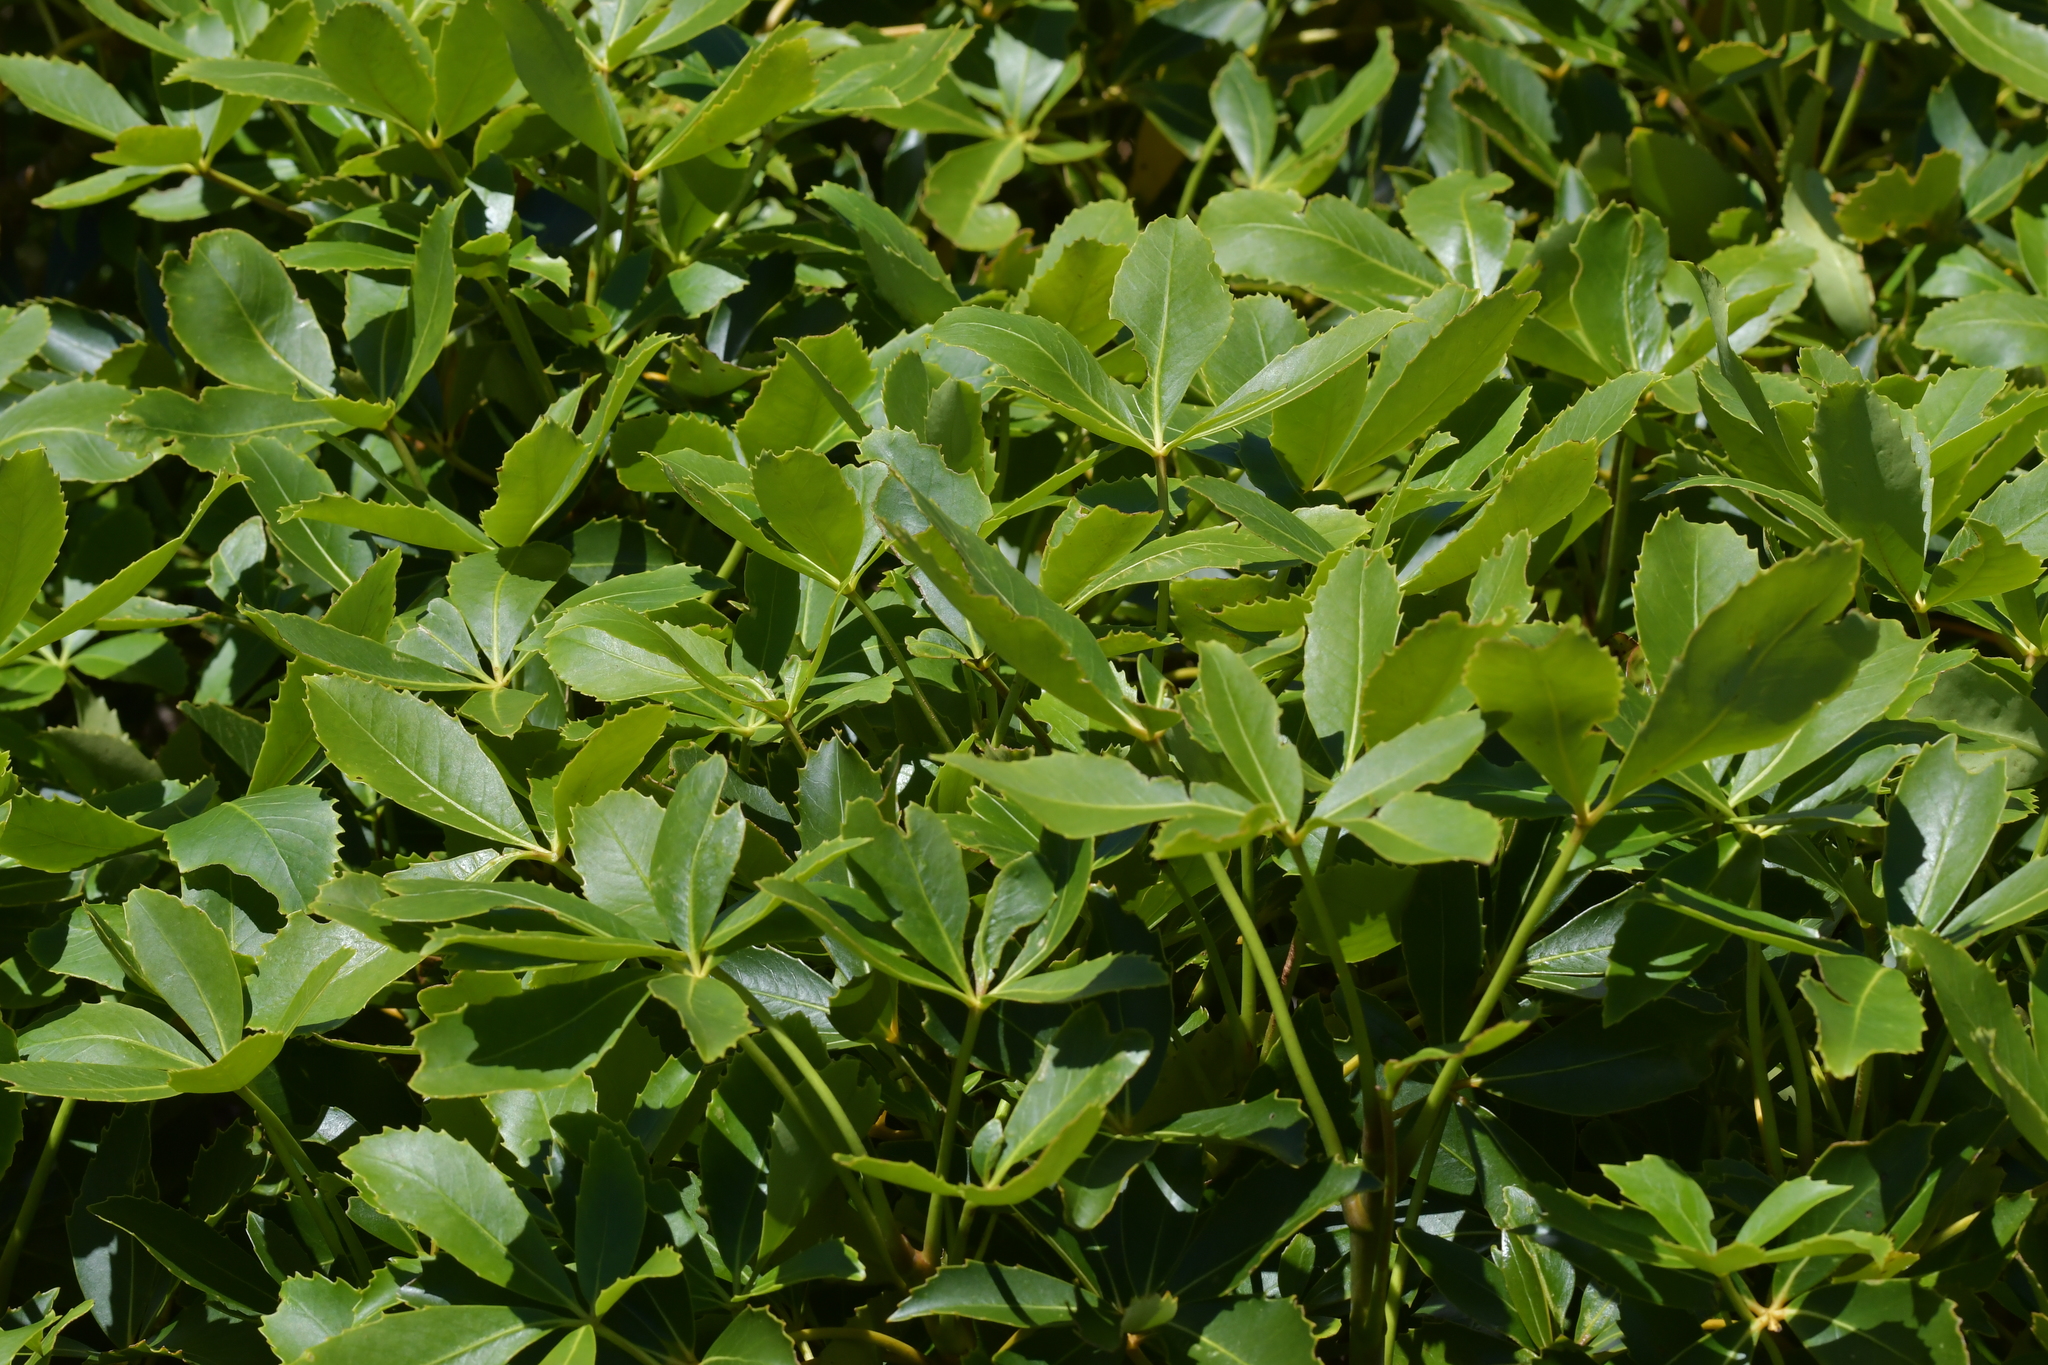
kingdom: Plantae
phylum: Tracheophyta
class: Magnoliopsida
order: Apiales
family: Araliaceae
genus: Neopanax
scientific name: Neopanax colensoi
